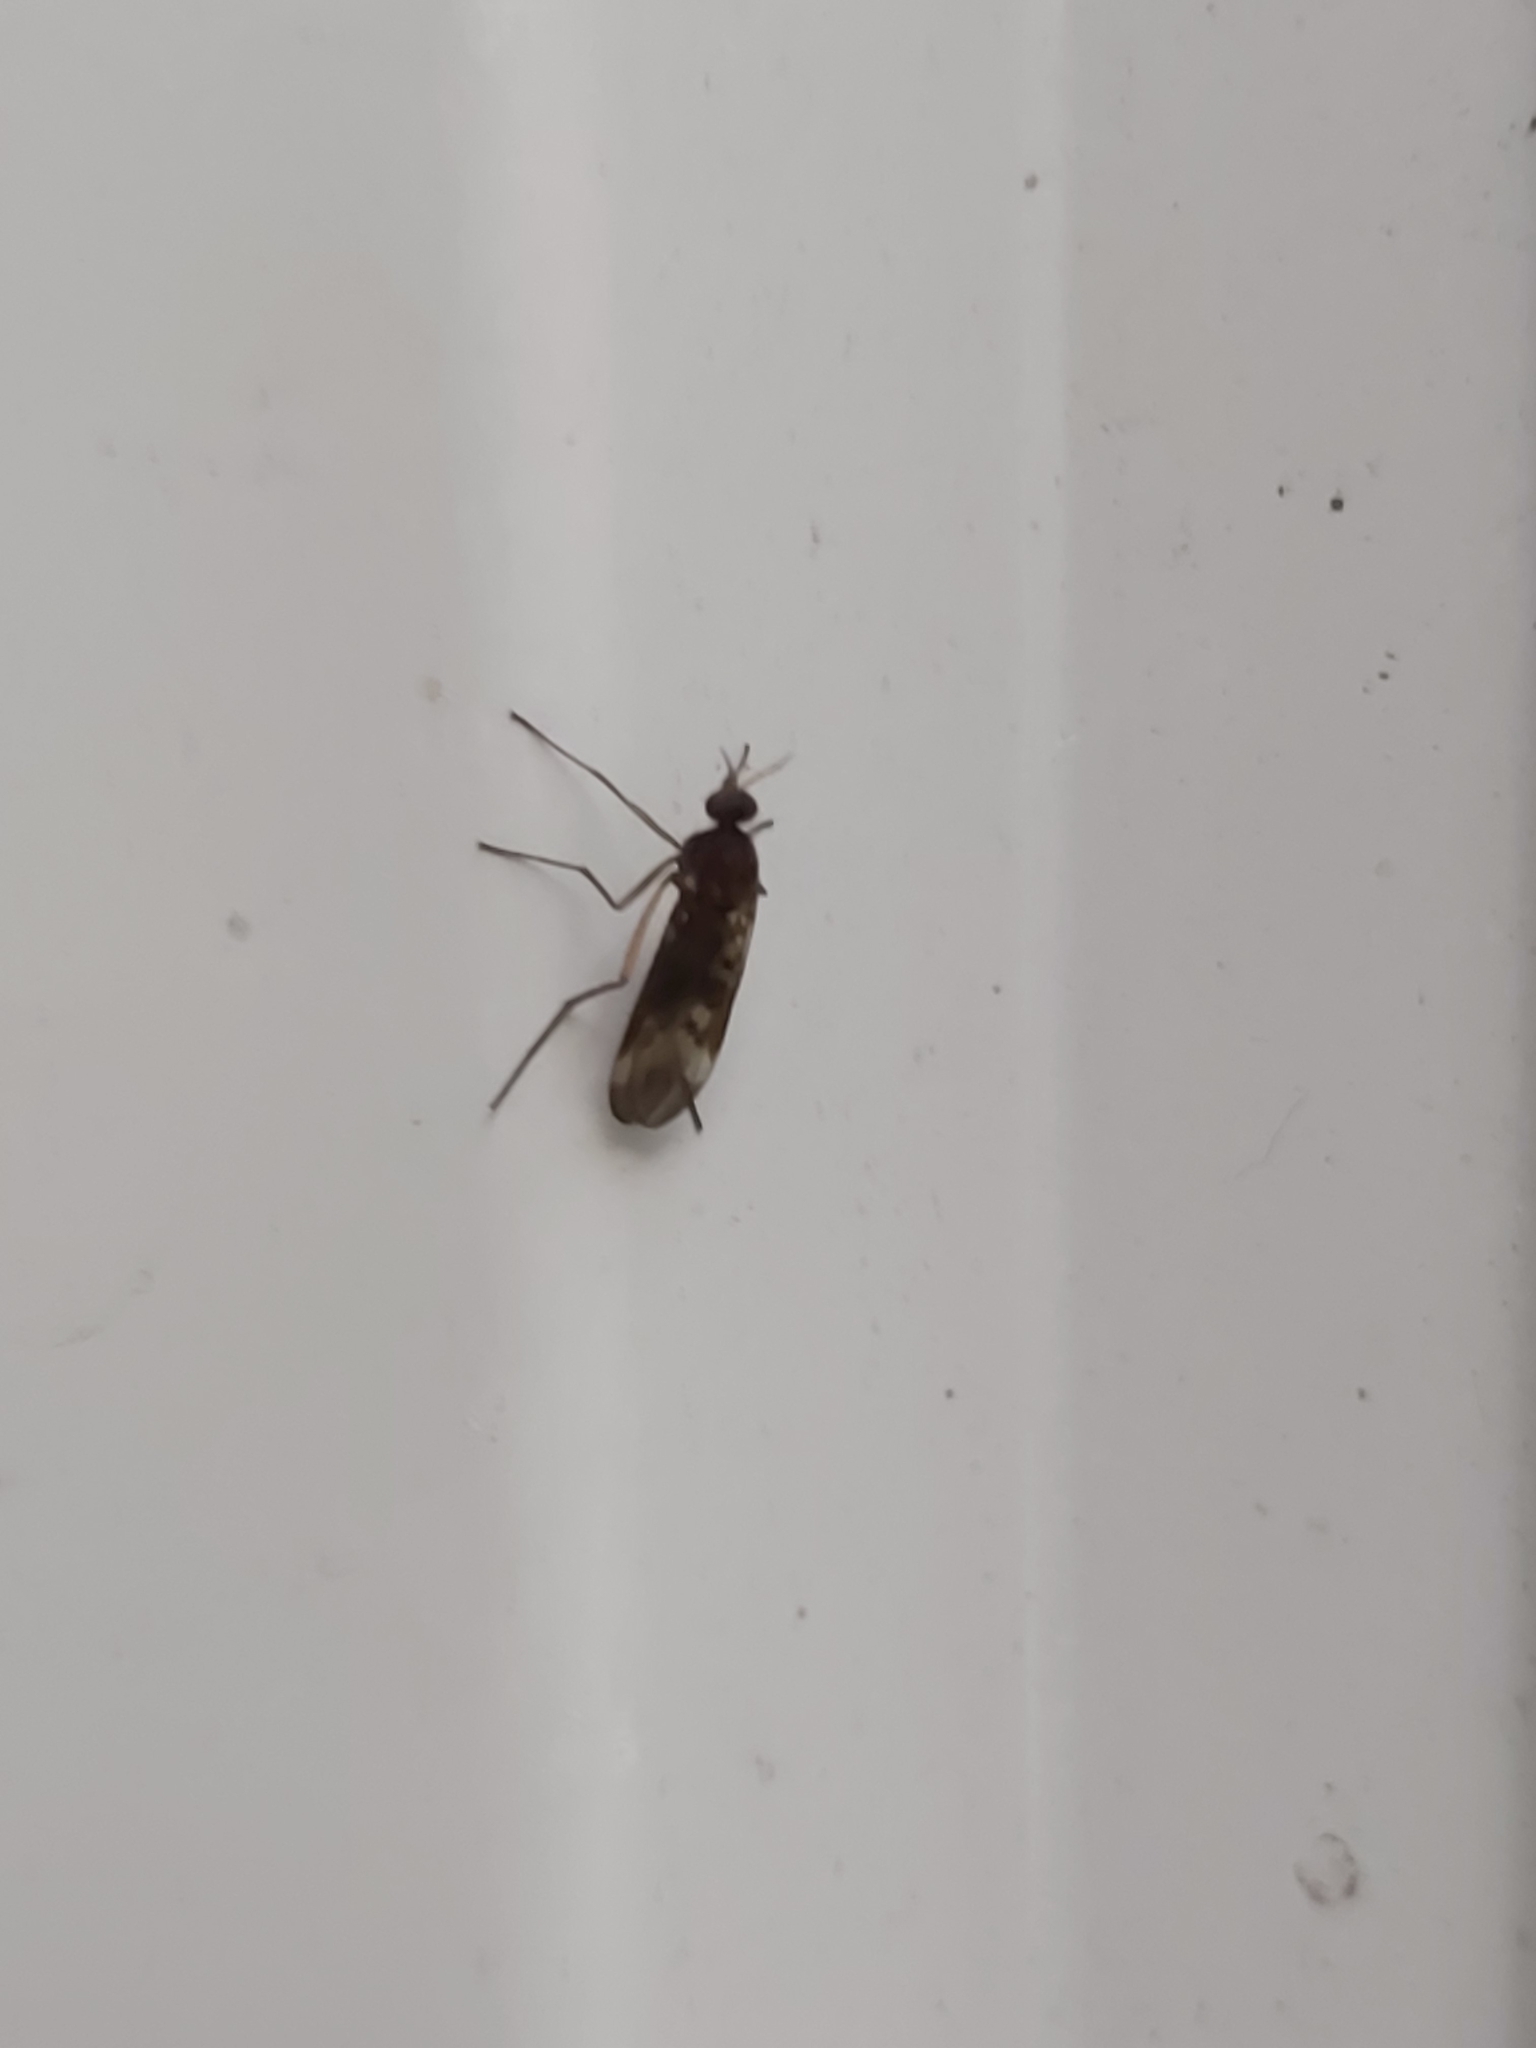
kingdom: Animalia
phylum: Arthropoda
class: Insecta
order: Diptera
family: Anisopodidae
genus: Sylvicola
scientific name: Sylvicola neozelandicus
